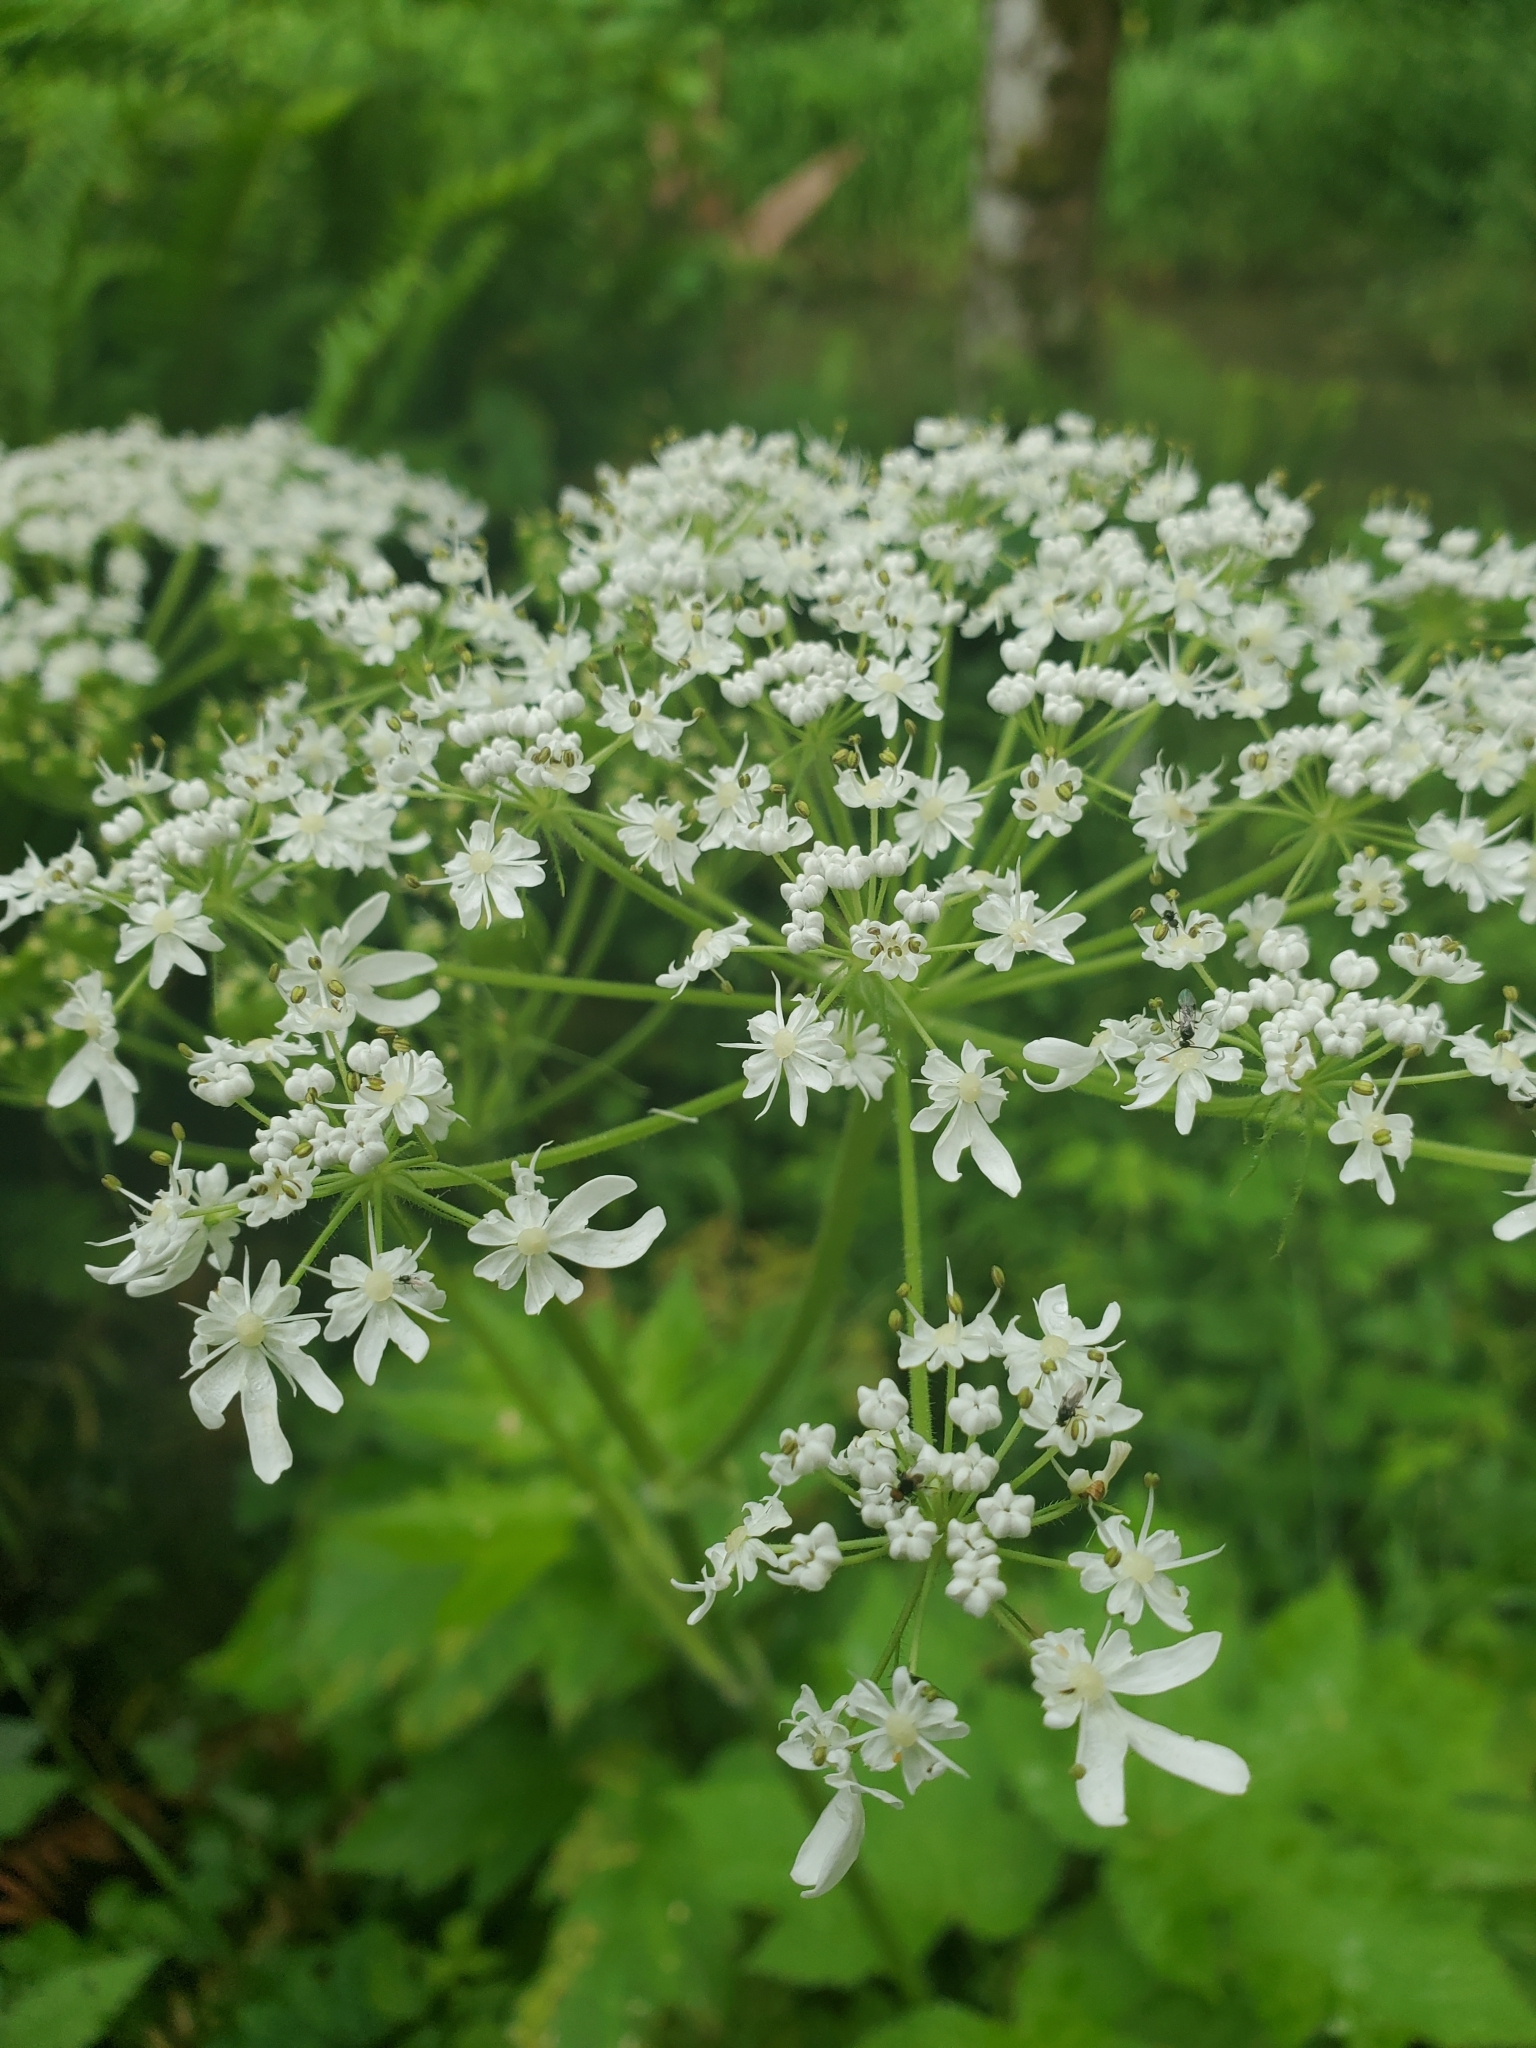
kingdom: Plantae
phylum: Tracheophyta
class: Magnoliopsida
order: Apiales
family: Apiaceae
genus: Heracleum
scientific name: Heracleum maximum
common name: American cow parsnip
